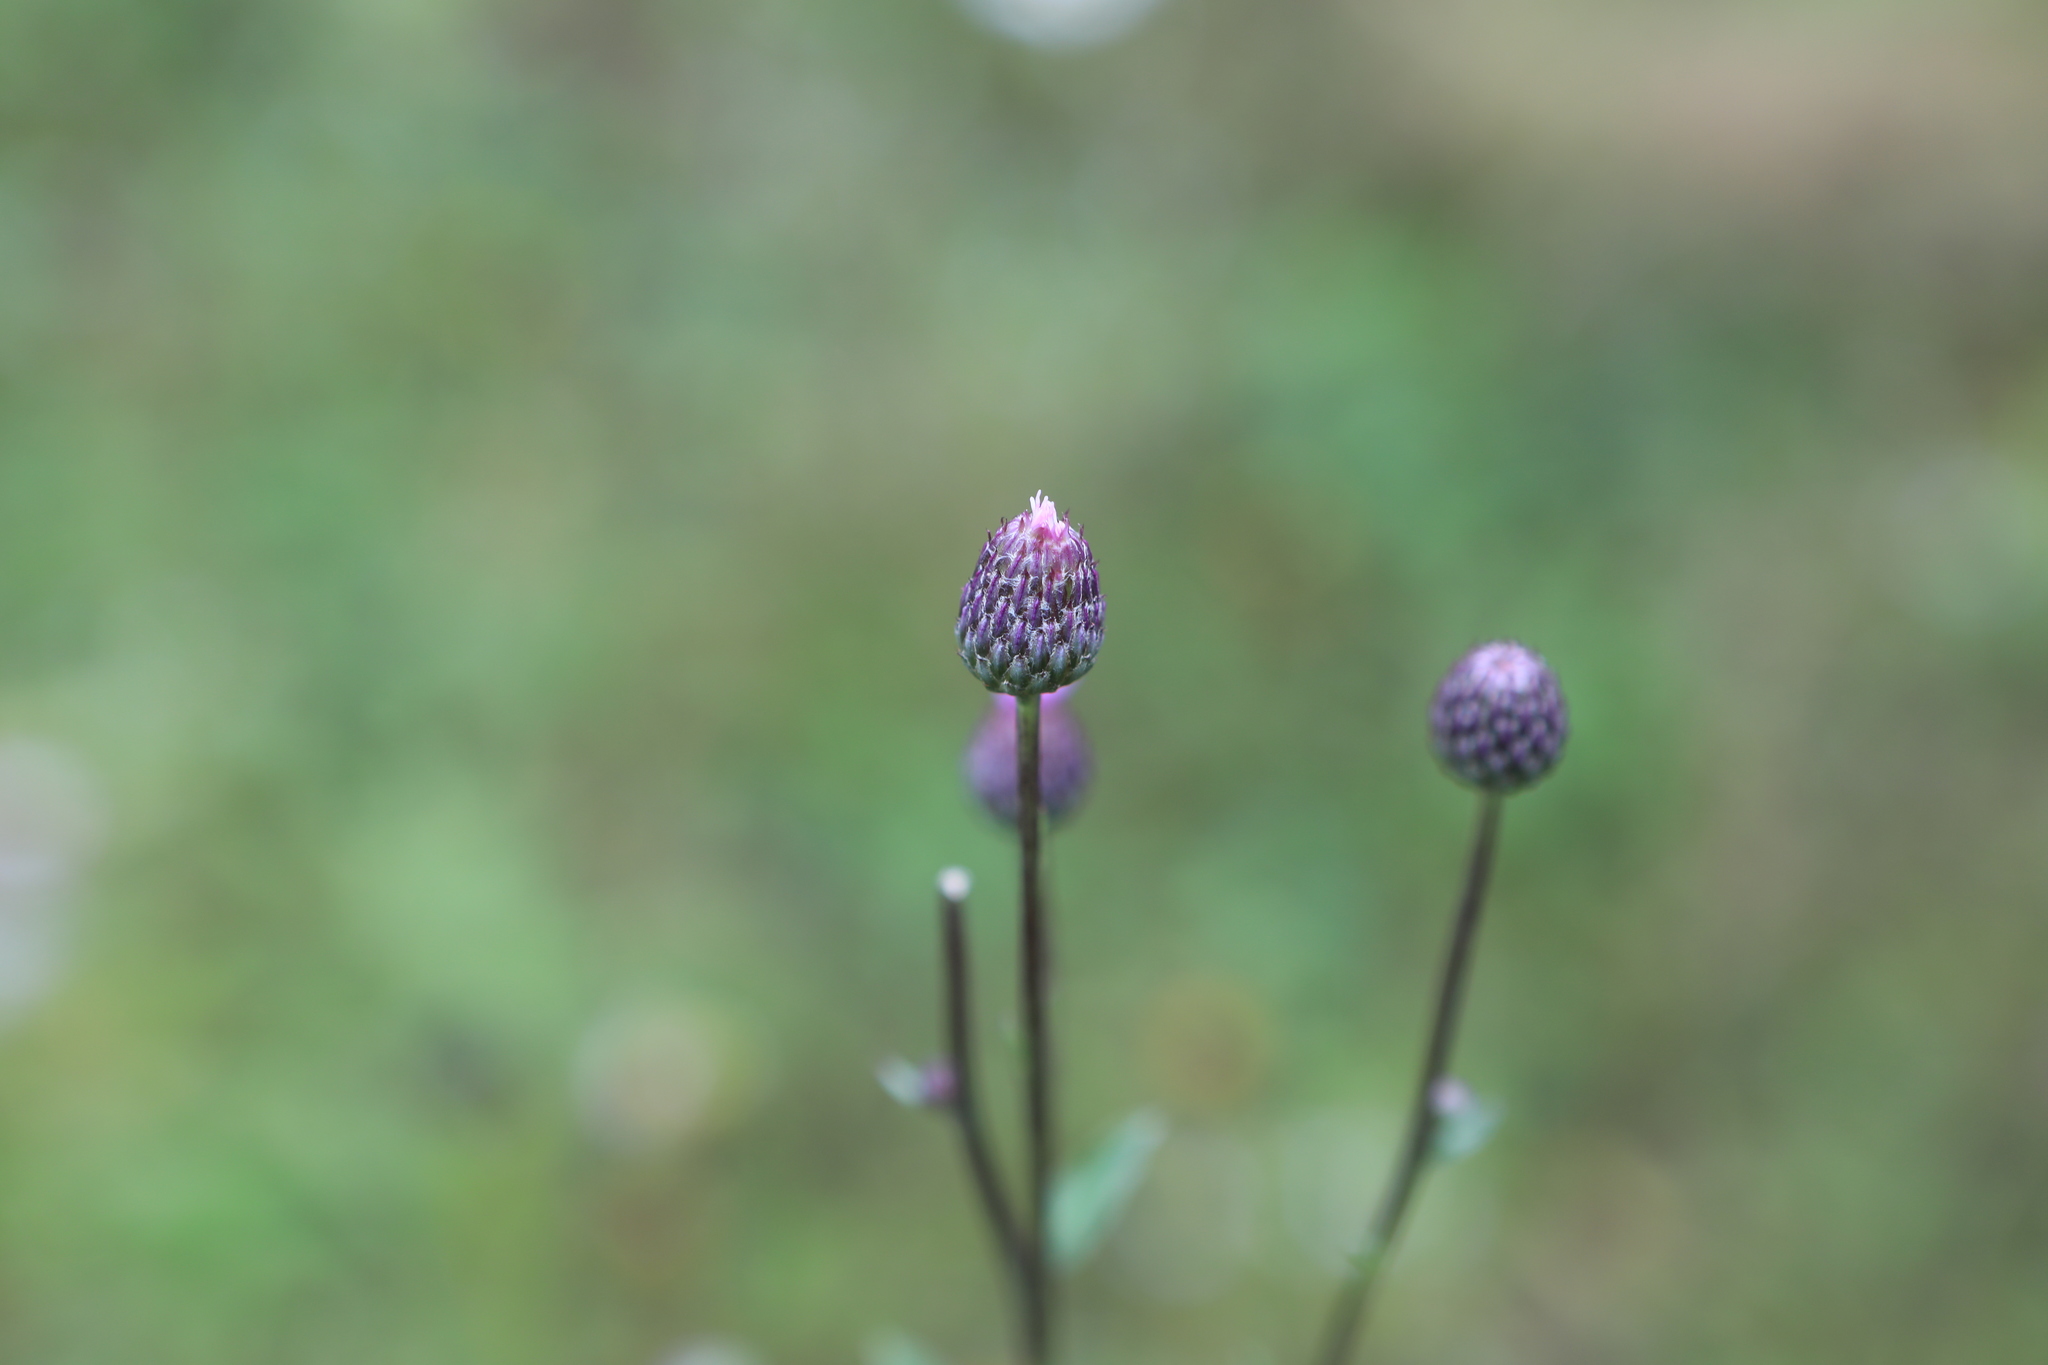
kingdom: Plantae
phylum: Tracheophyta
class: Magnoliopsida
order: Asterales
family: Asteraceae
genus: Cirsium
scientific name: Cirsium arvense
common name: Creeping thistle
